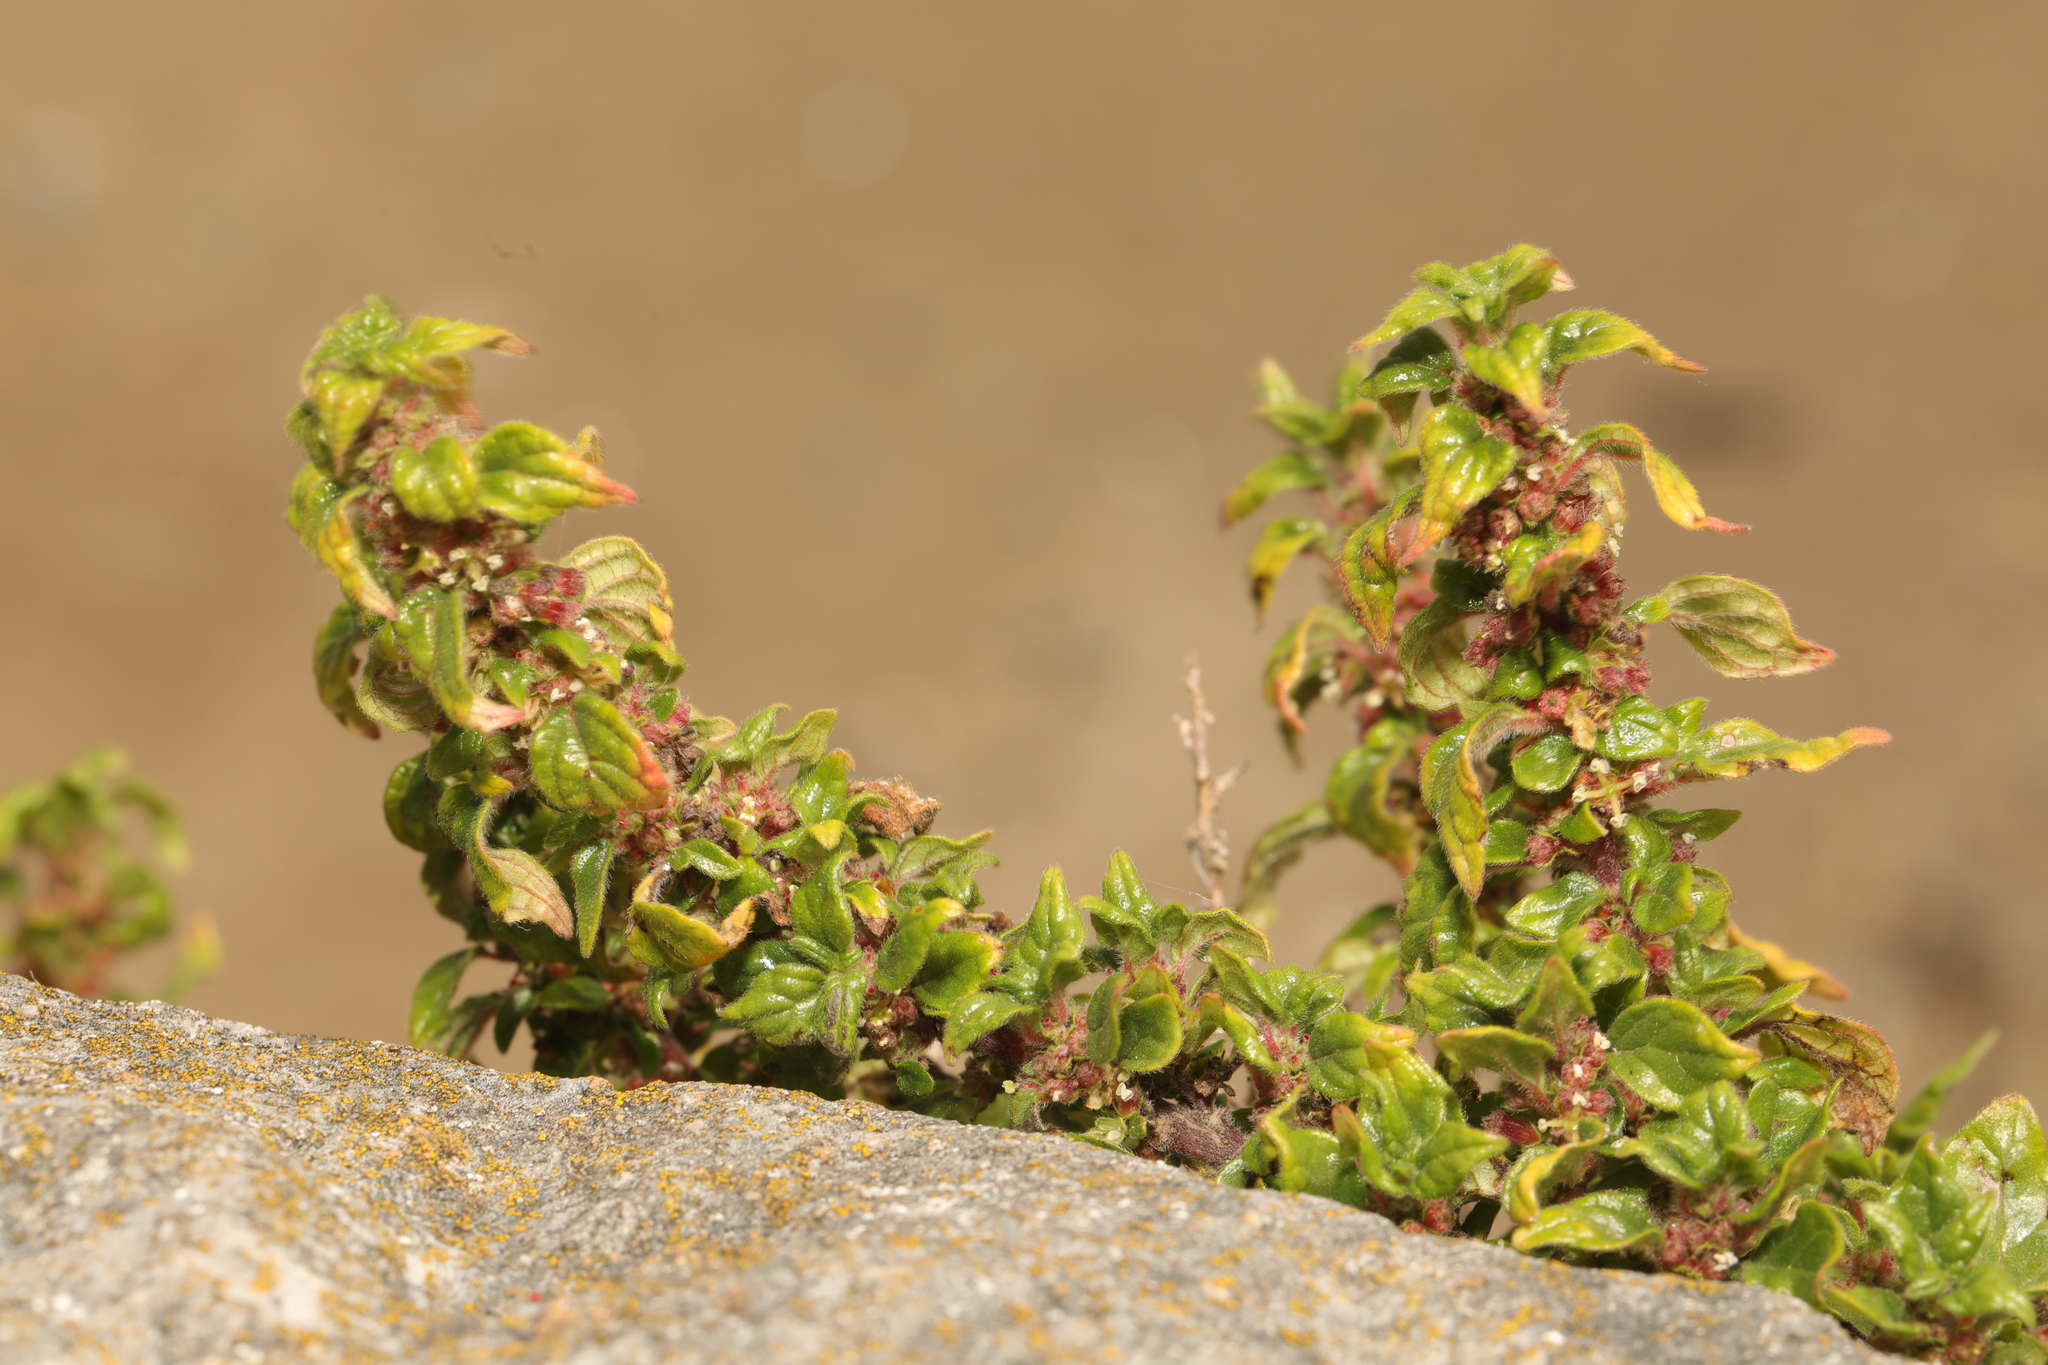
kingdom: Plantae
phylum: Tracheophyta
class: Magnoliopsida
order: Rosales
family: Urticaceae
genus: Parietaria
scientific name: Parietaria judaica
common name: Pellitory-of-the-wall
